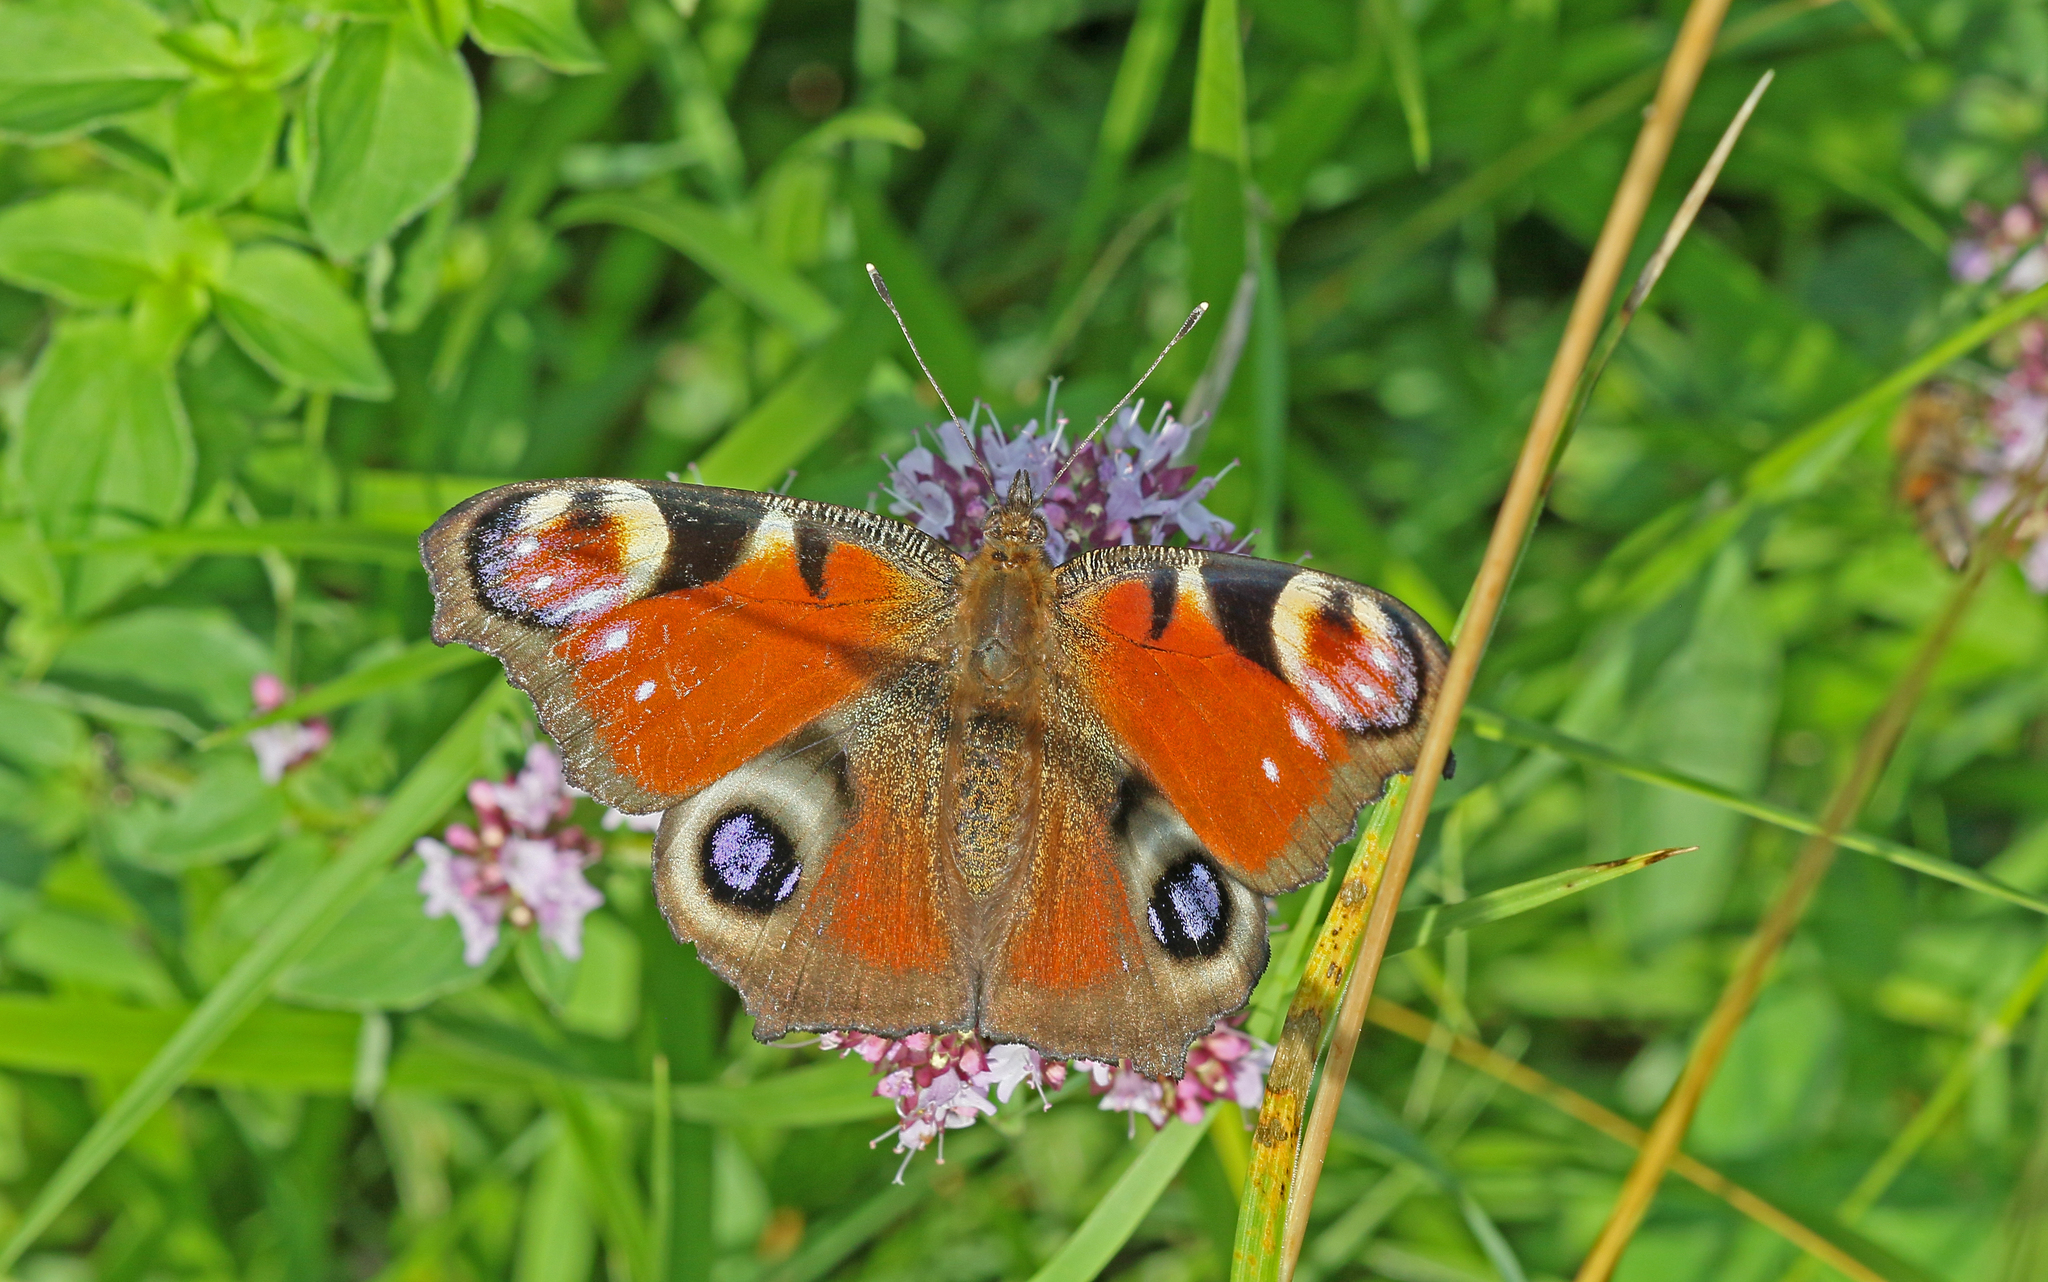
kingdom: Animalia
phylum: Arthropoda
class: Insecta
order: Lepidoptera
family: Nymphalidae
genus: Aglais
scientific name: Aglais io
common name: Peacock
